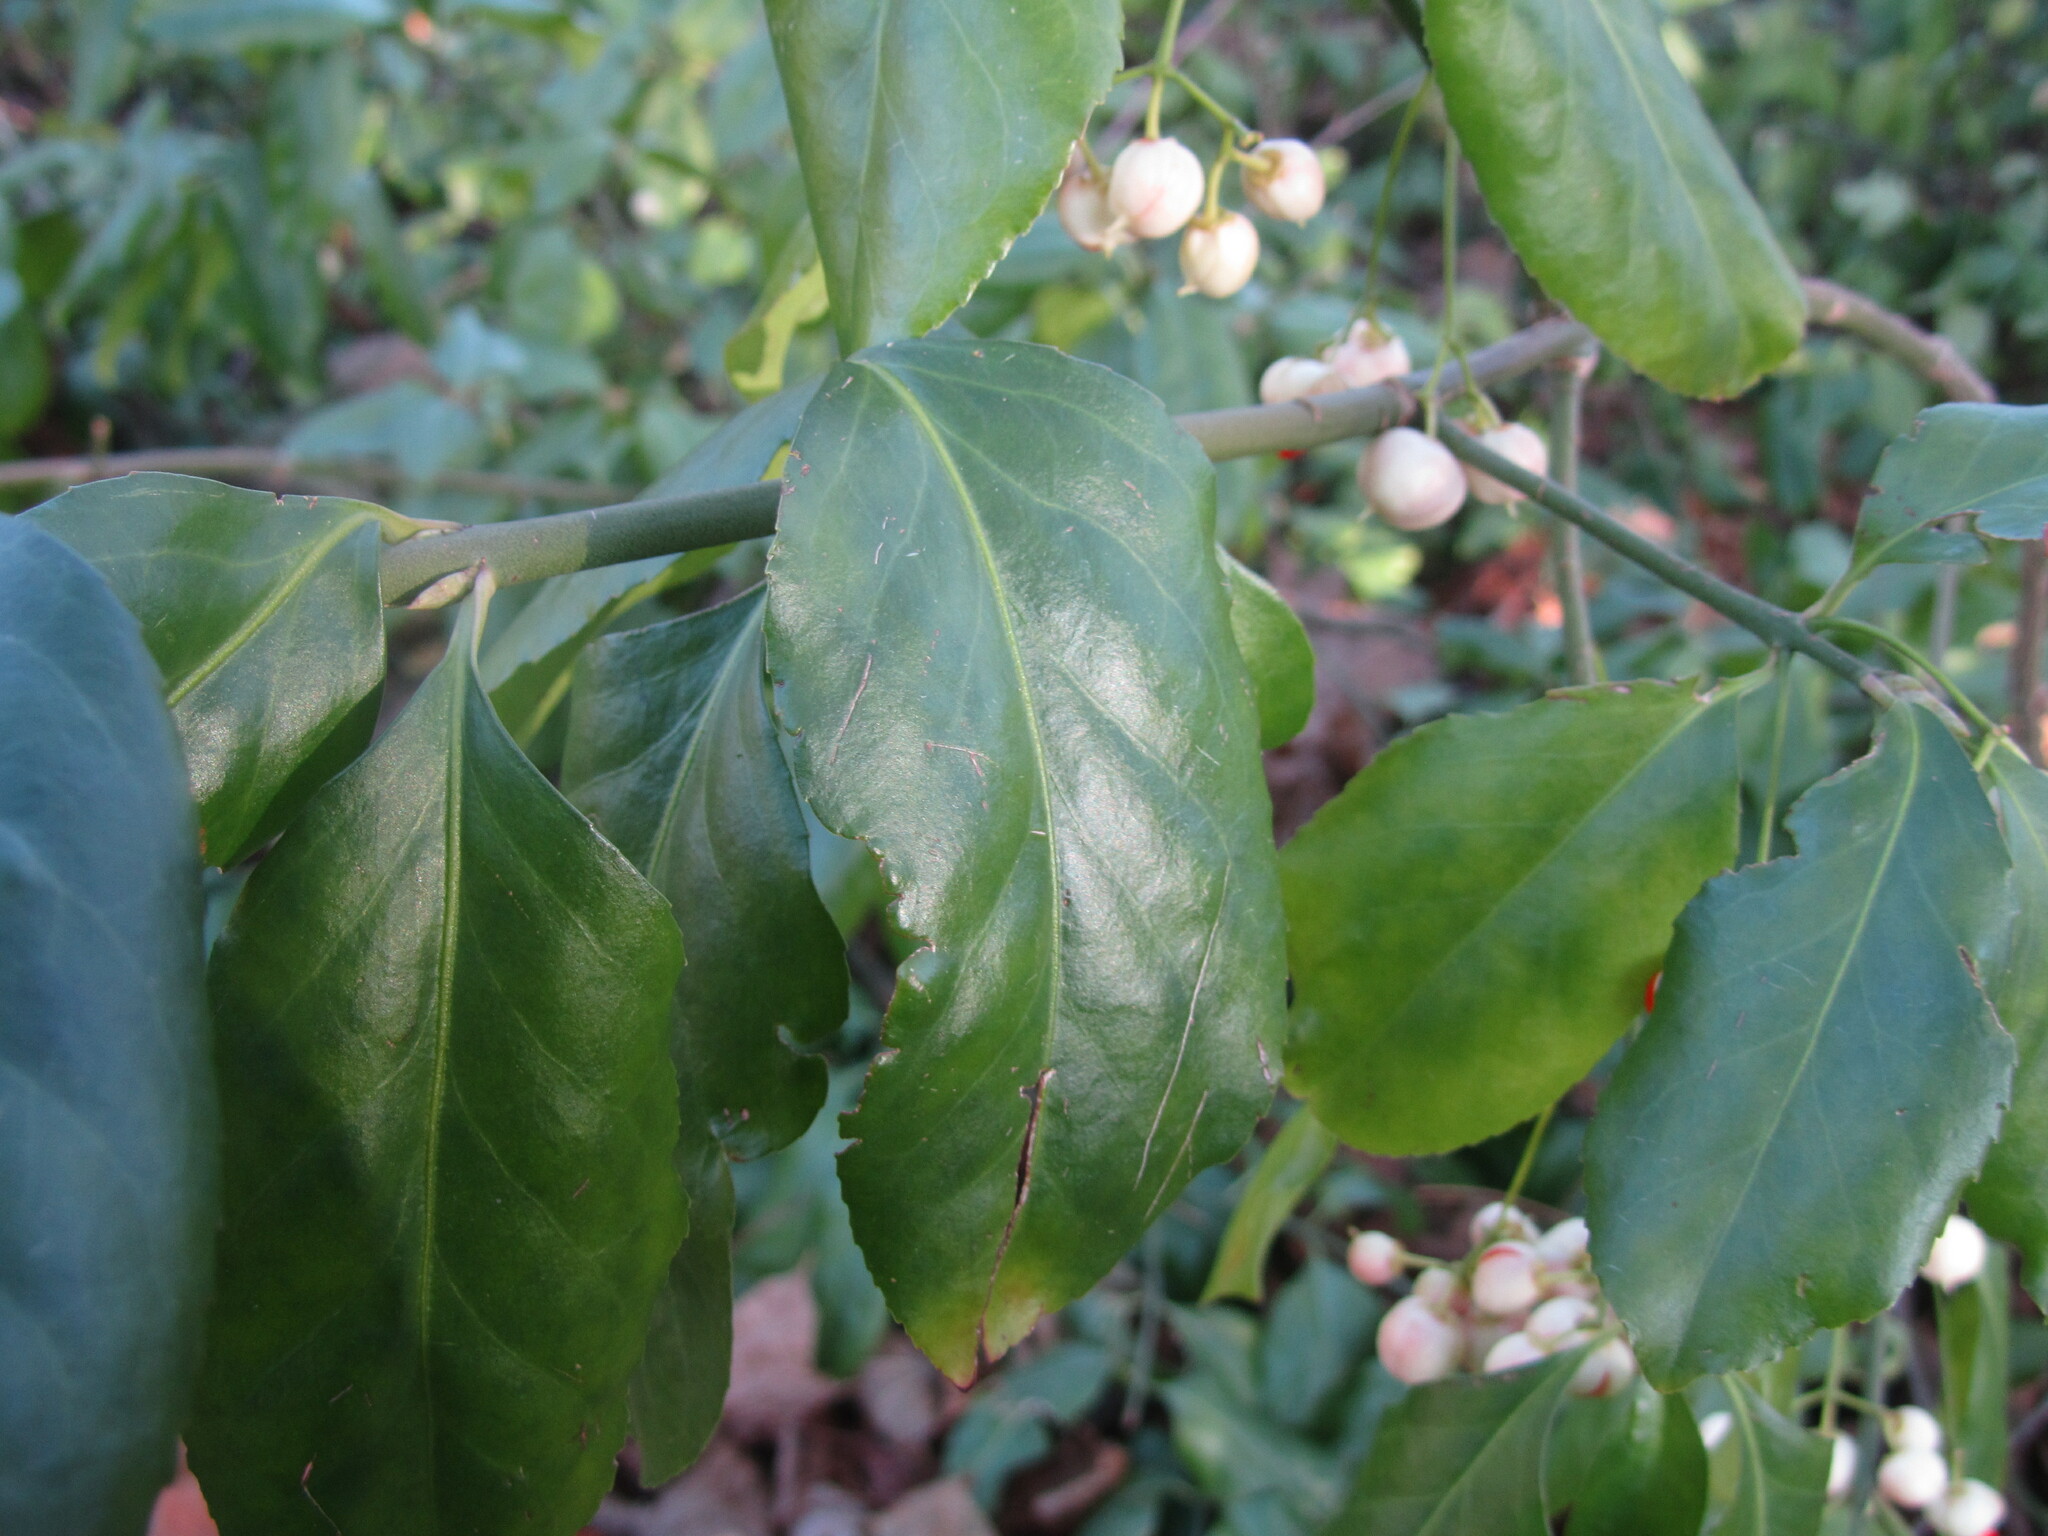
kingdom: Plantae
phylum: Tracheophyta
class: Magnoliopsida
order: Celastrales
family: Celastraceae
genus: Euonymus
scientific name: Euonymus fortunei
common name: Climbing euonymus
